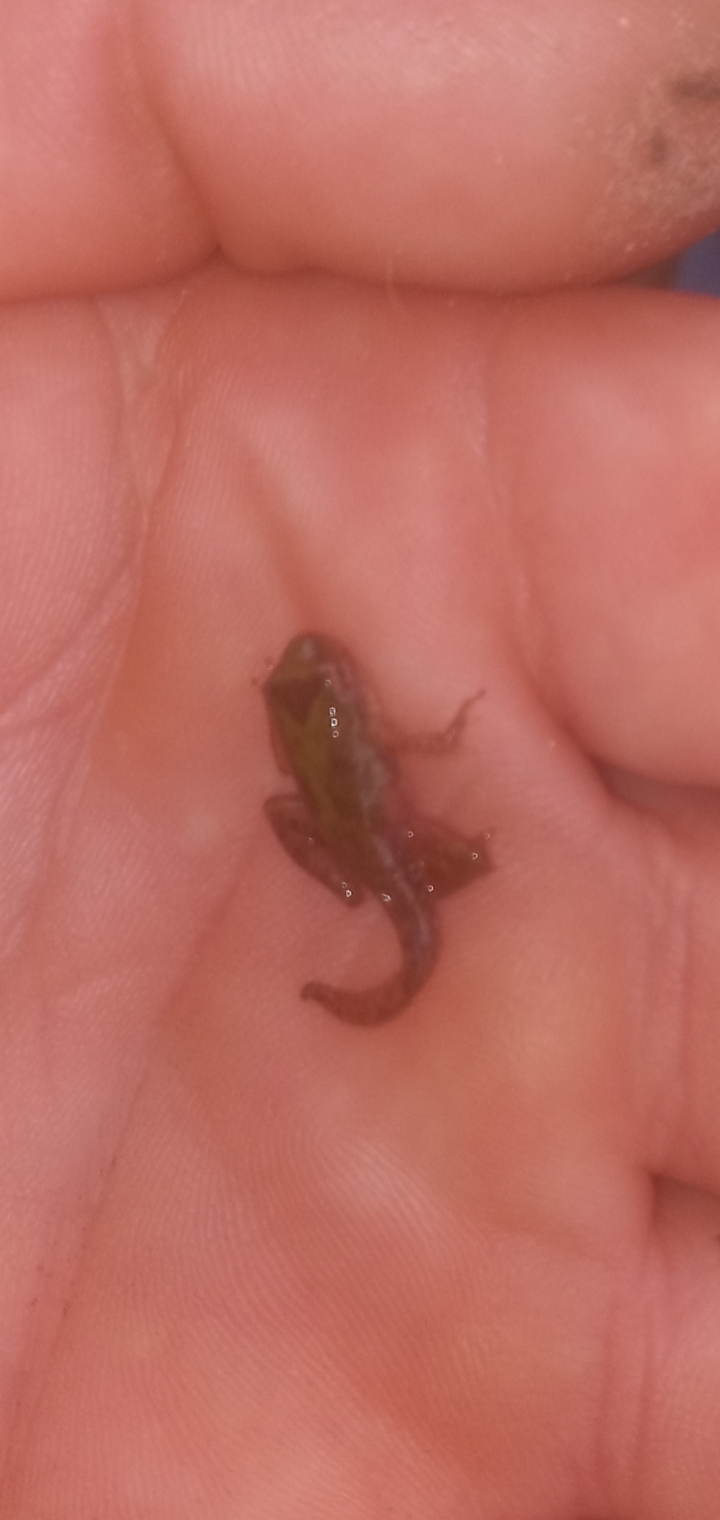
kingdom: Animalia
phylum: Chordata
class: Amphibia
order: Anura
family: Hylidae
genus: Acris
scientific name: Acris blanchardi
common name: Blanchard's cricket frog
